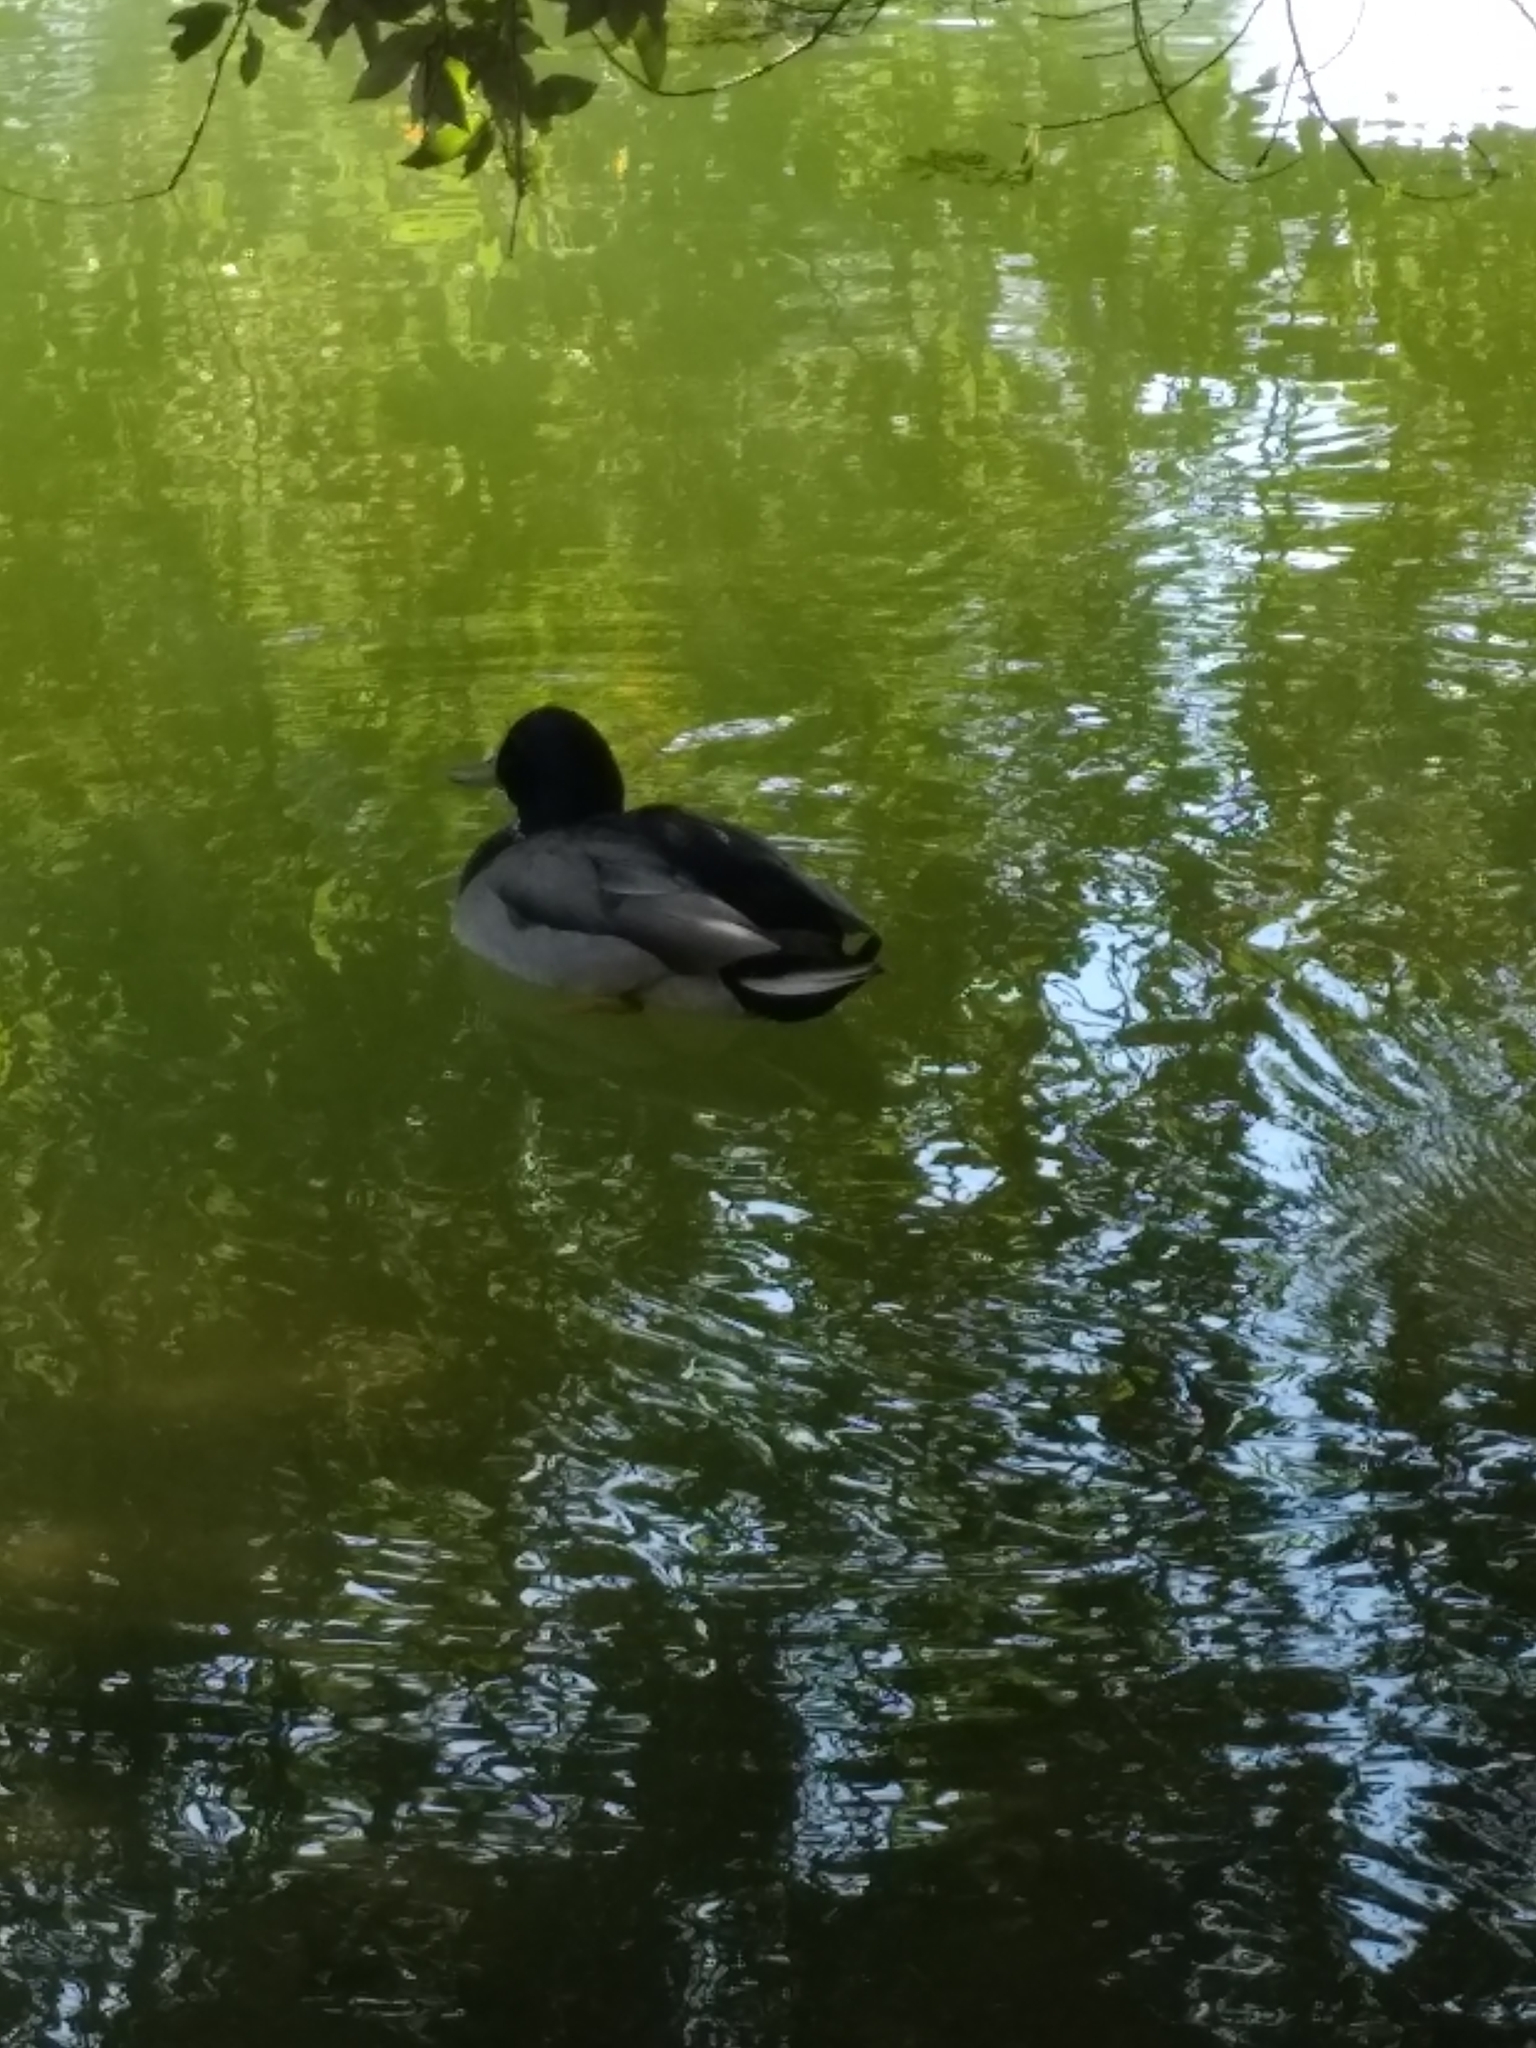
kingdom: Animalia
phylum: Chordata
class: Aves
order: Anseriformes
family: Anatidae
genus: Anas
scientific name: Anas platyrhynchos
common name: Mallard
